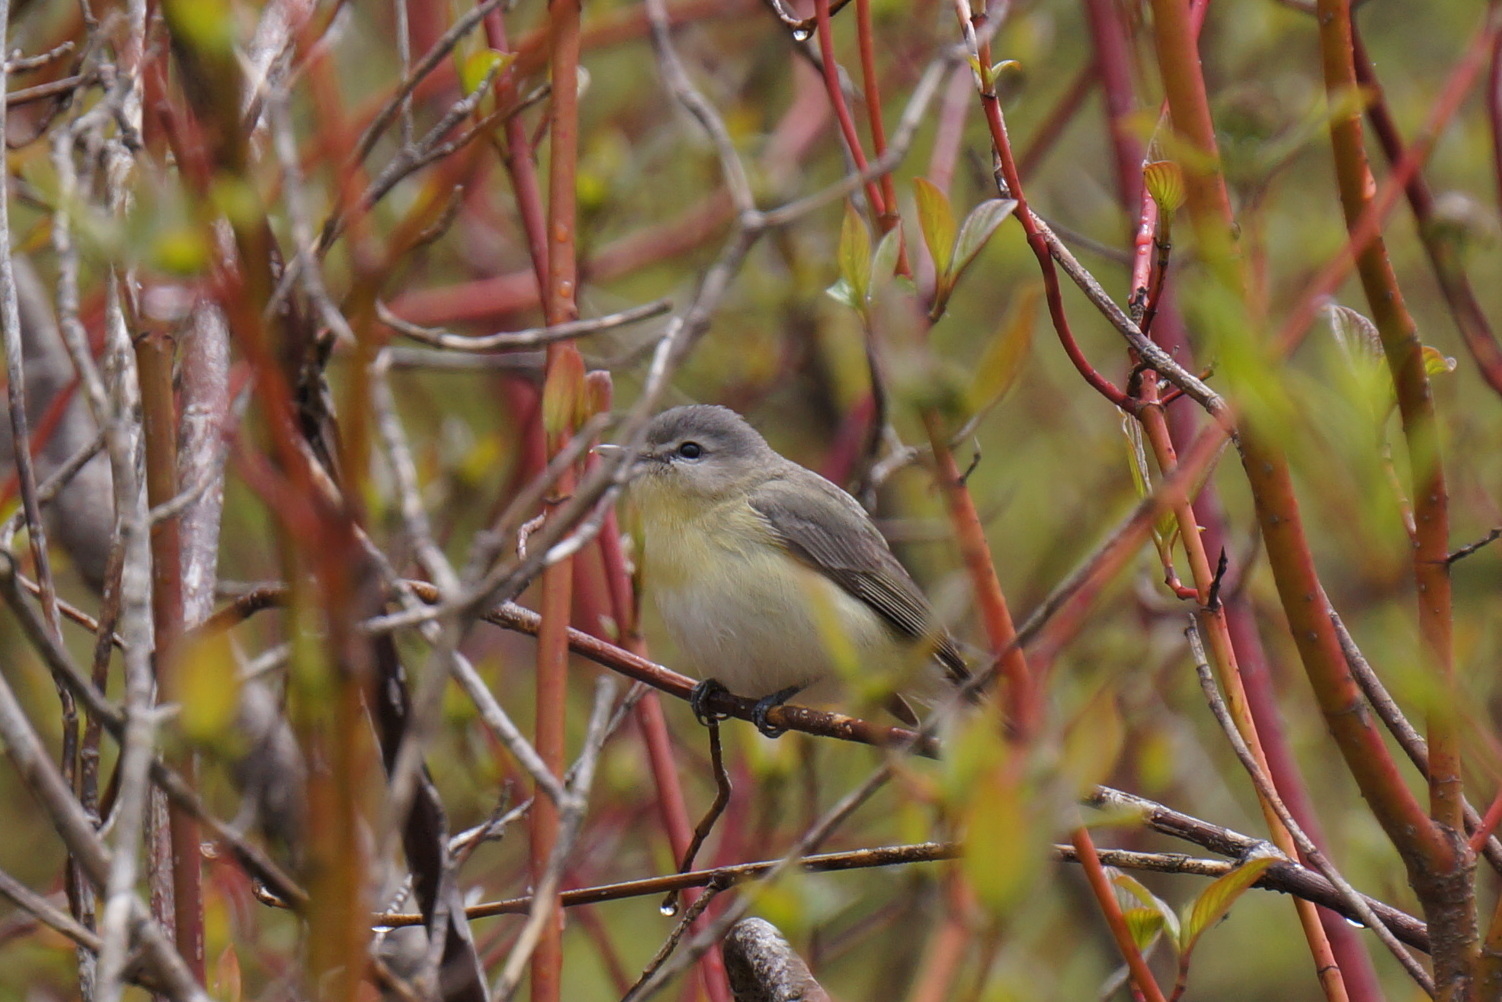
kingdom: Animalia
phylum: Chordata
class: Aves
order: Passeriformes
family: Vireonidae
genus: Vireo
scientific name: Vireo philadelphicus
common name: Philadelphia vireo
